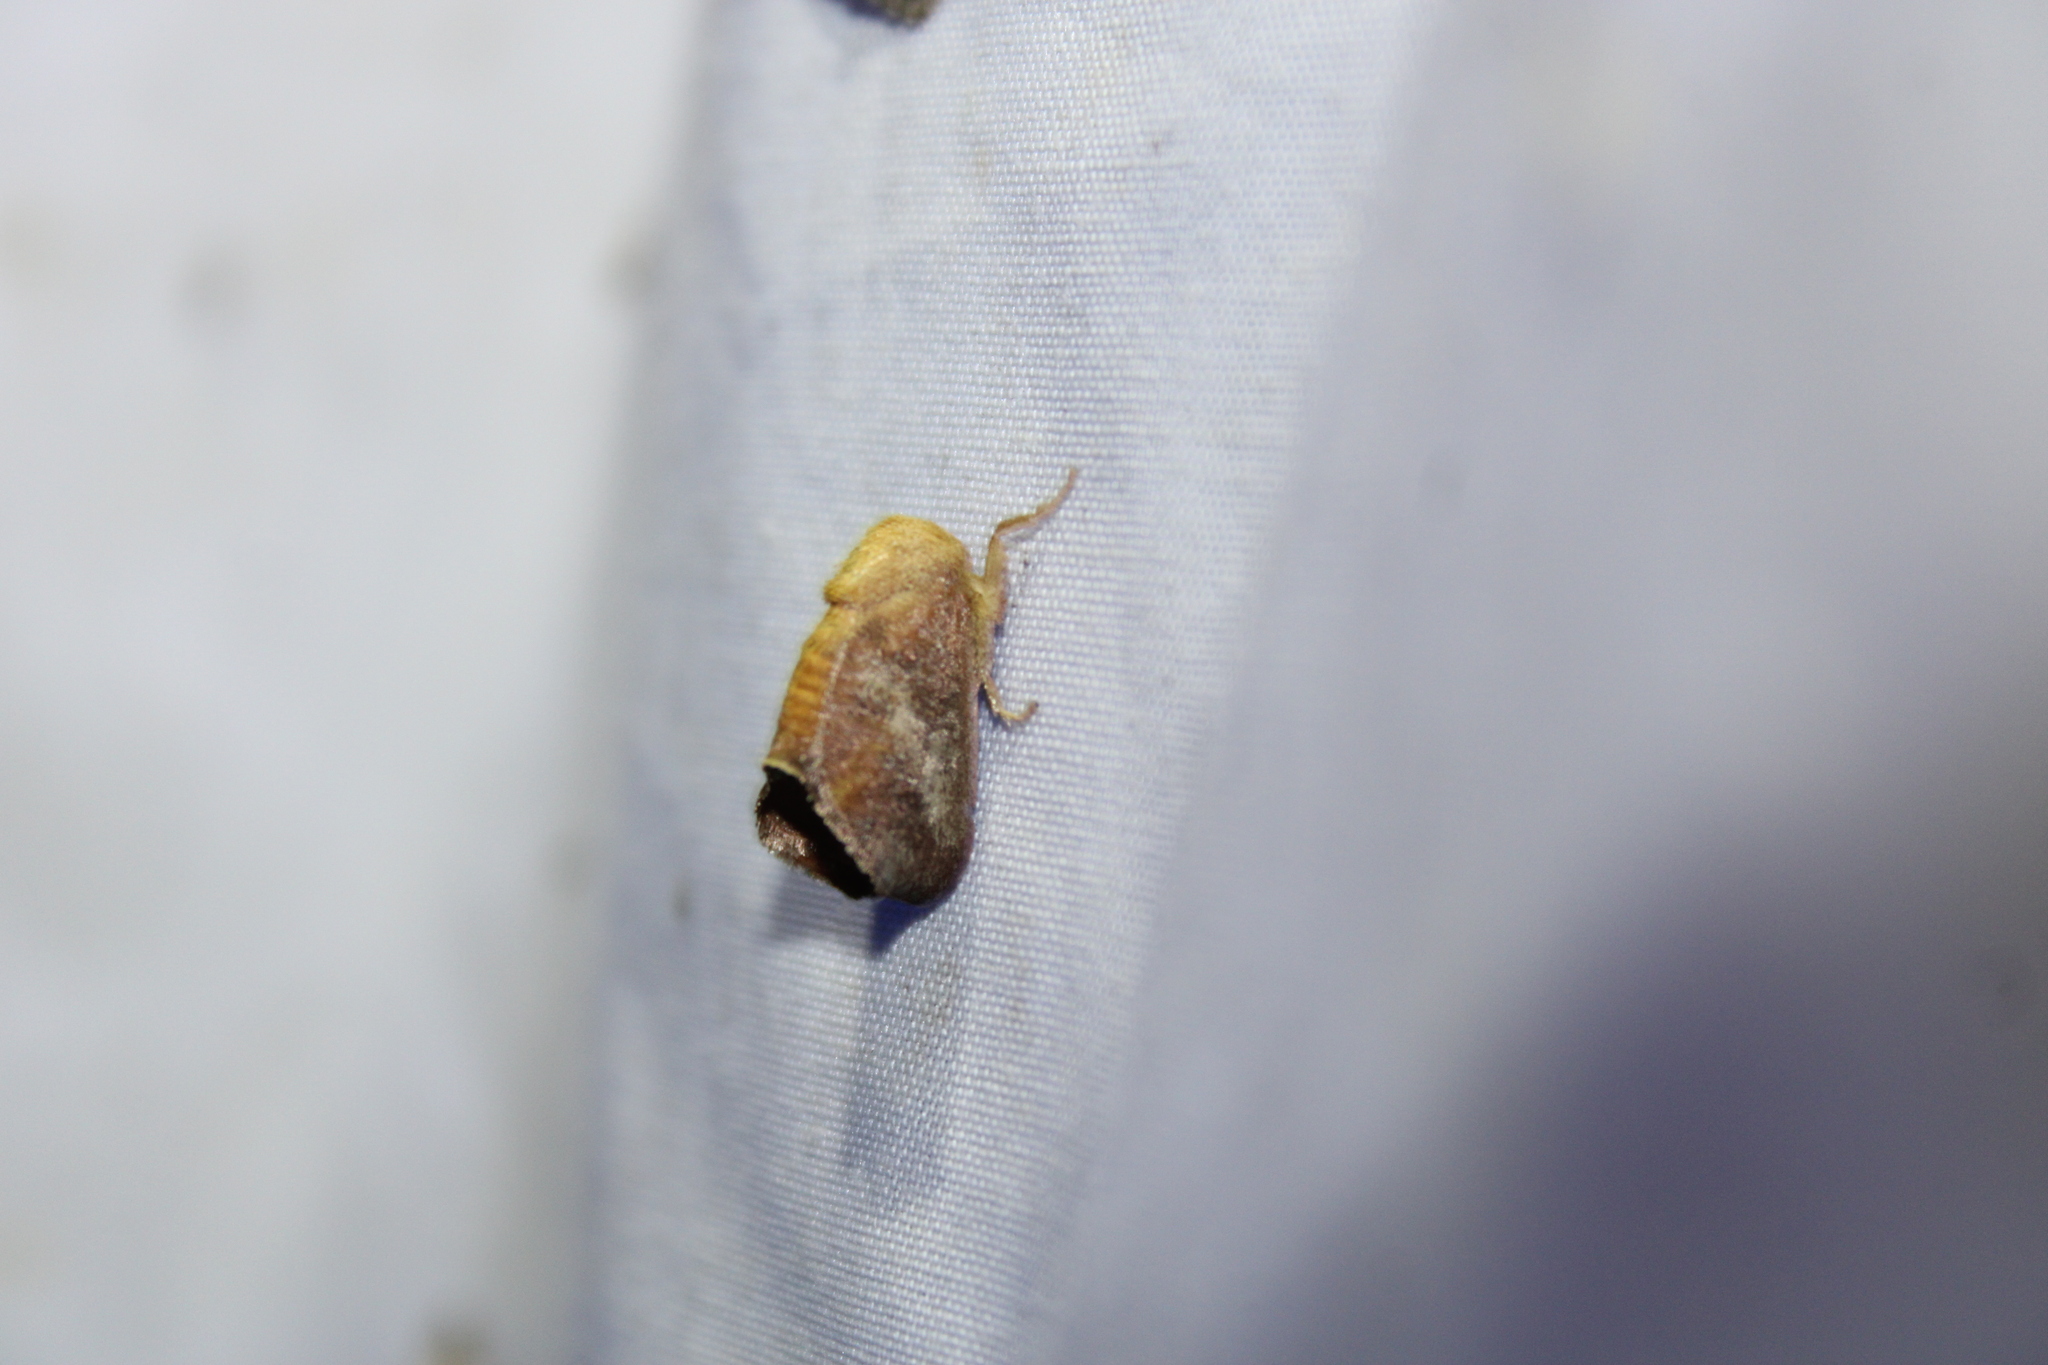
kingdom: Animalia
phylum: Arthropoda
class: Insecta
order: Lepidoptera
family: Limacodidae
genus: Isa
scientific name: Isa textula
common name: Crowned slug moth
